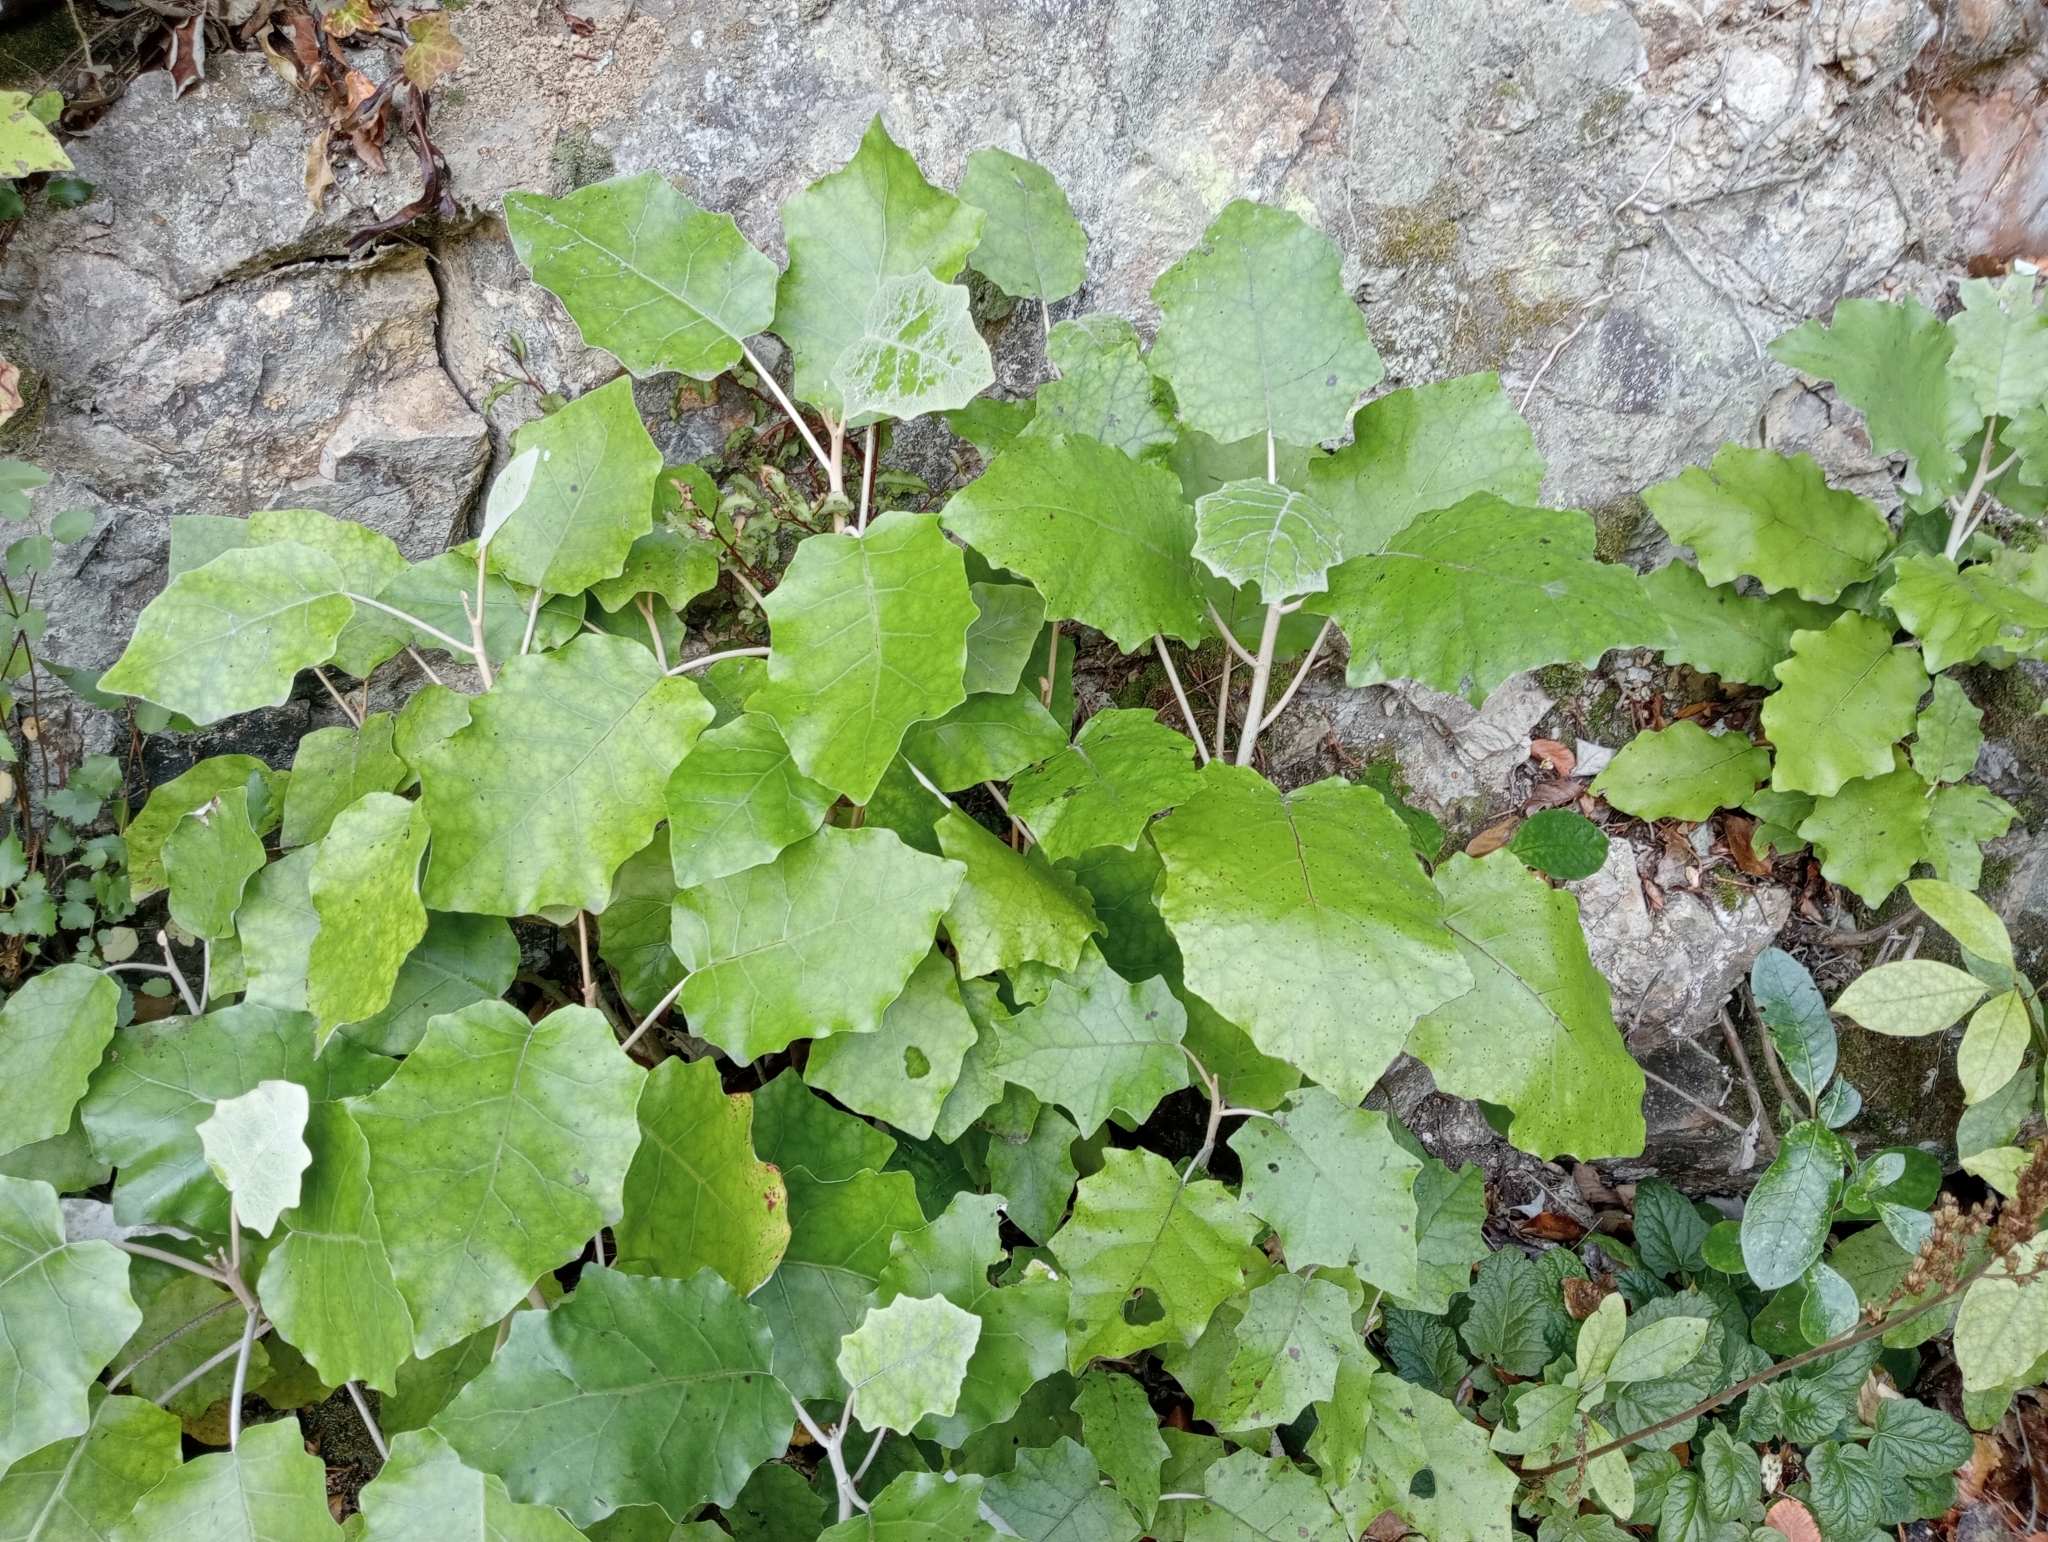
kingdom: Plantae
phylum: Tracheophyta
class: Magnoliopsida
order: Asterales
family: Asteraceae
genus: Brachyglottis
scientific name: Brachyglottis repanda
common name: Hedge ragwort
